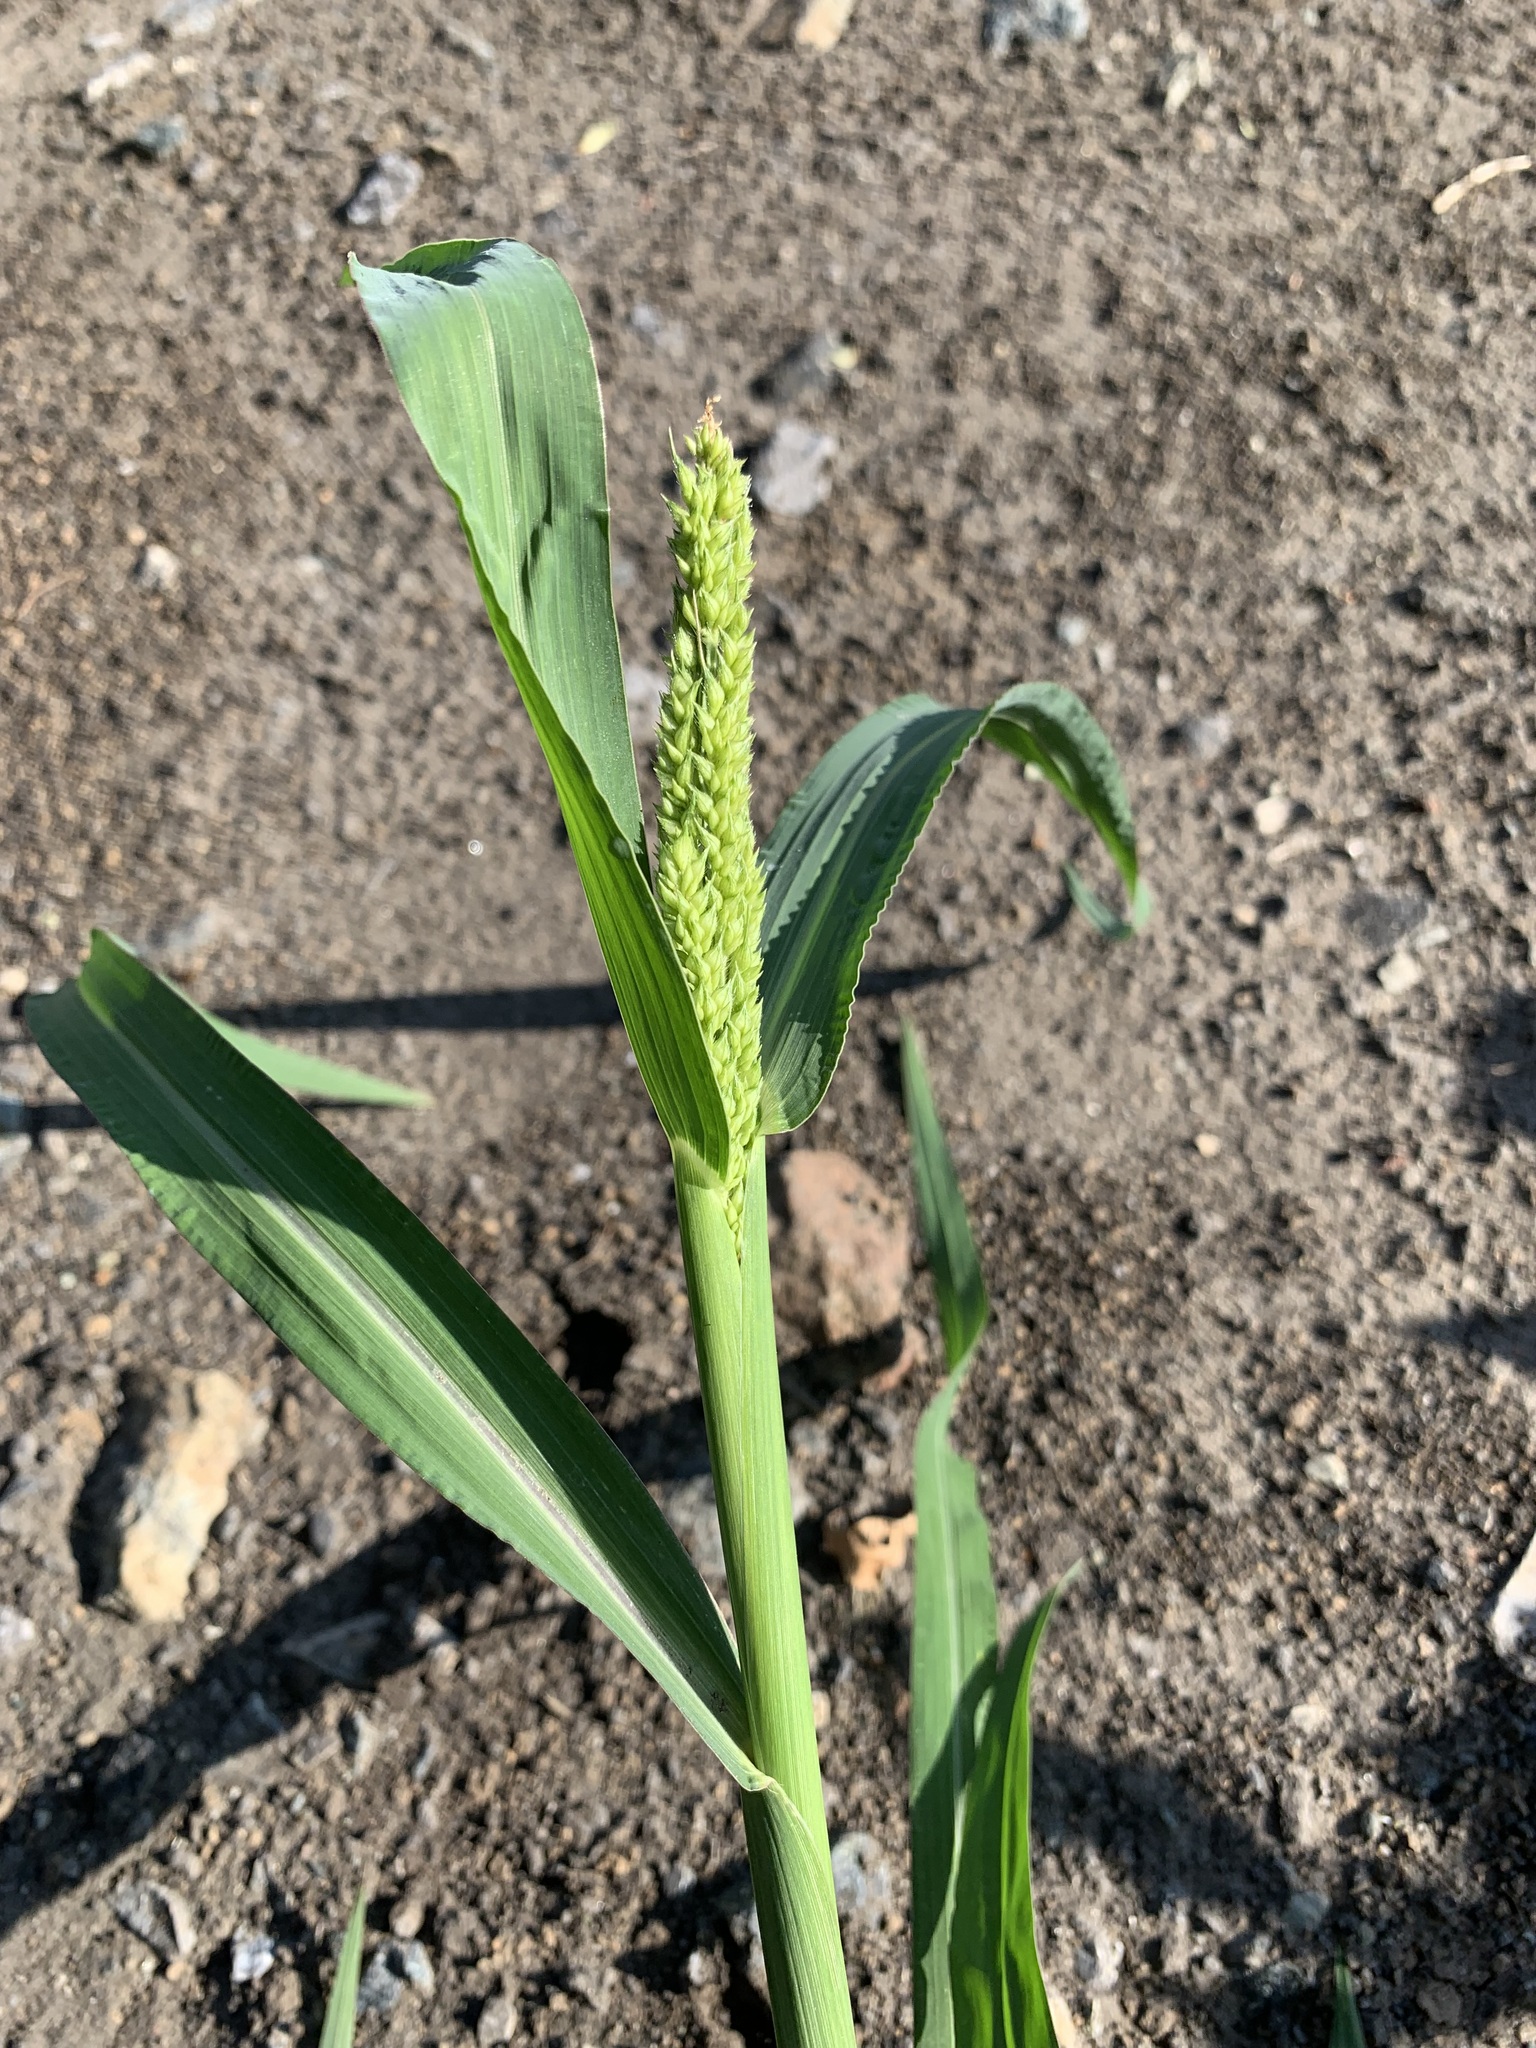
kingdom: Plantae
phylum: Tracheophyta
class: Liliopsida
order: Poales
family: Poaceae
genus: Echinochloa
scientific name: Echinochloa crus-galli
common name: Cockspur
